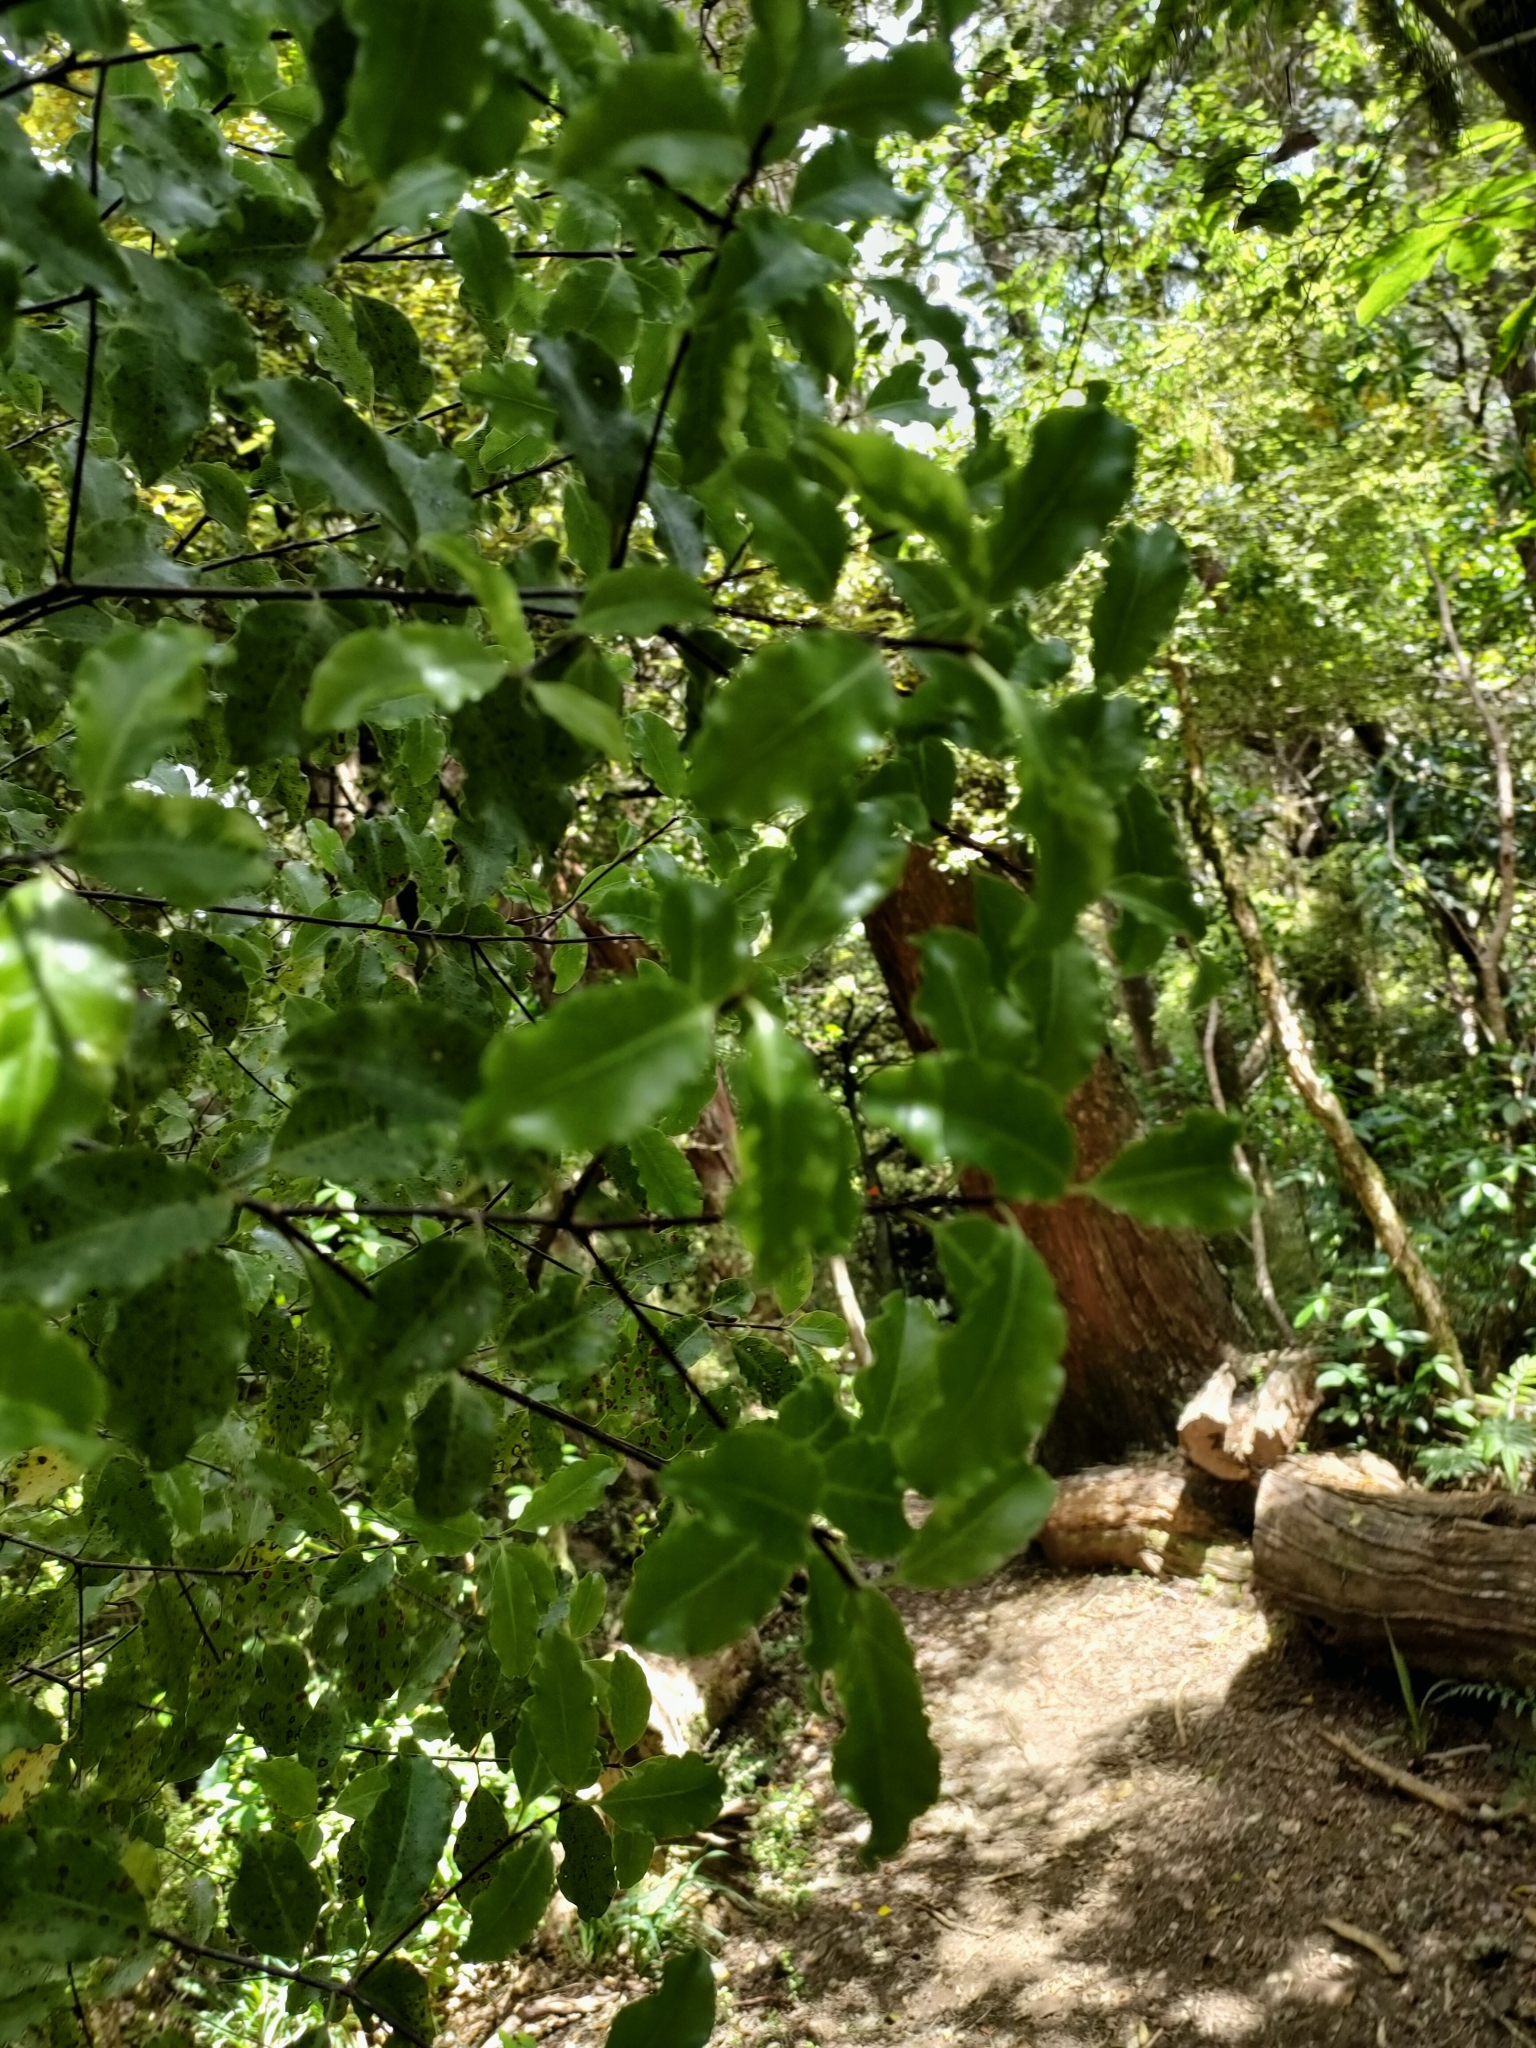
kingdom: Plantae
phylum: Tracheophyta
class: Magnoliopsida
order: Apiales
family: Pittosporaceae
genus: Pittosporum
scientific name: Pittosporum tenuifolium
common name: Kohuhu
